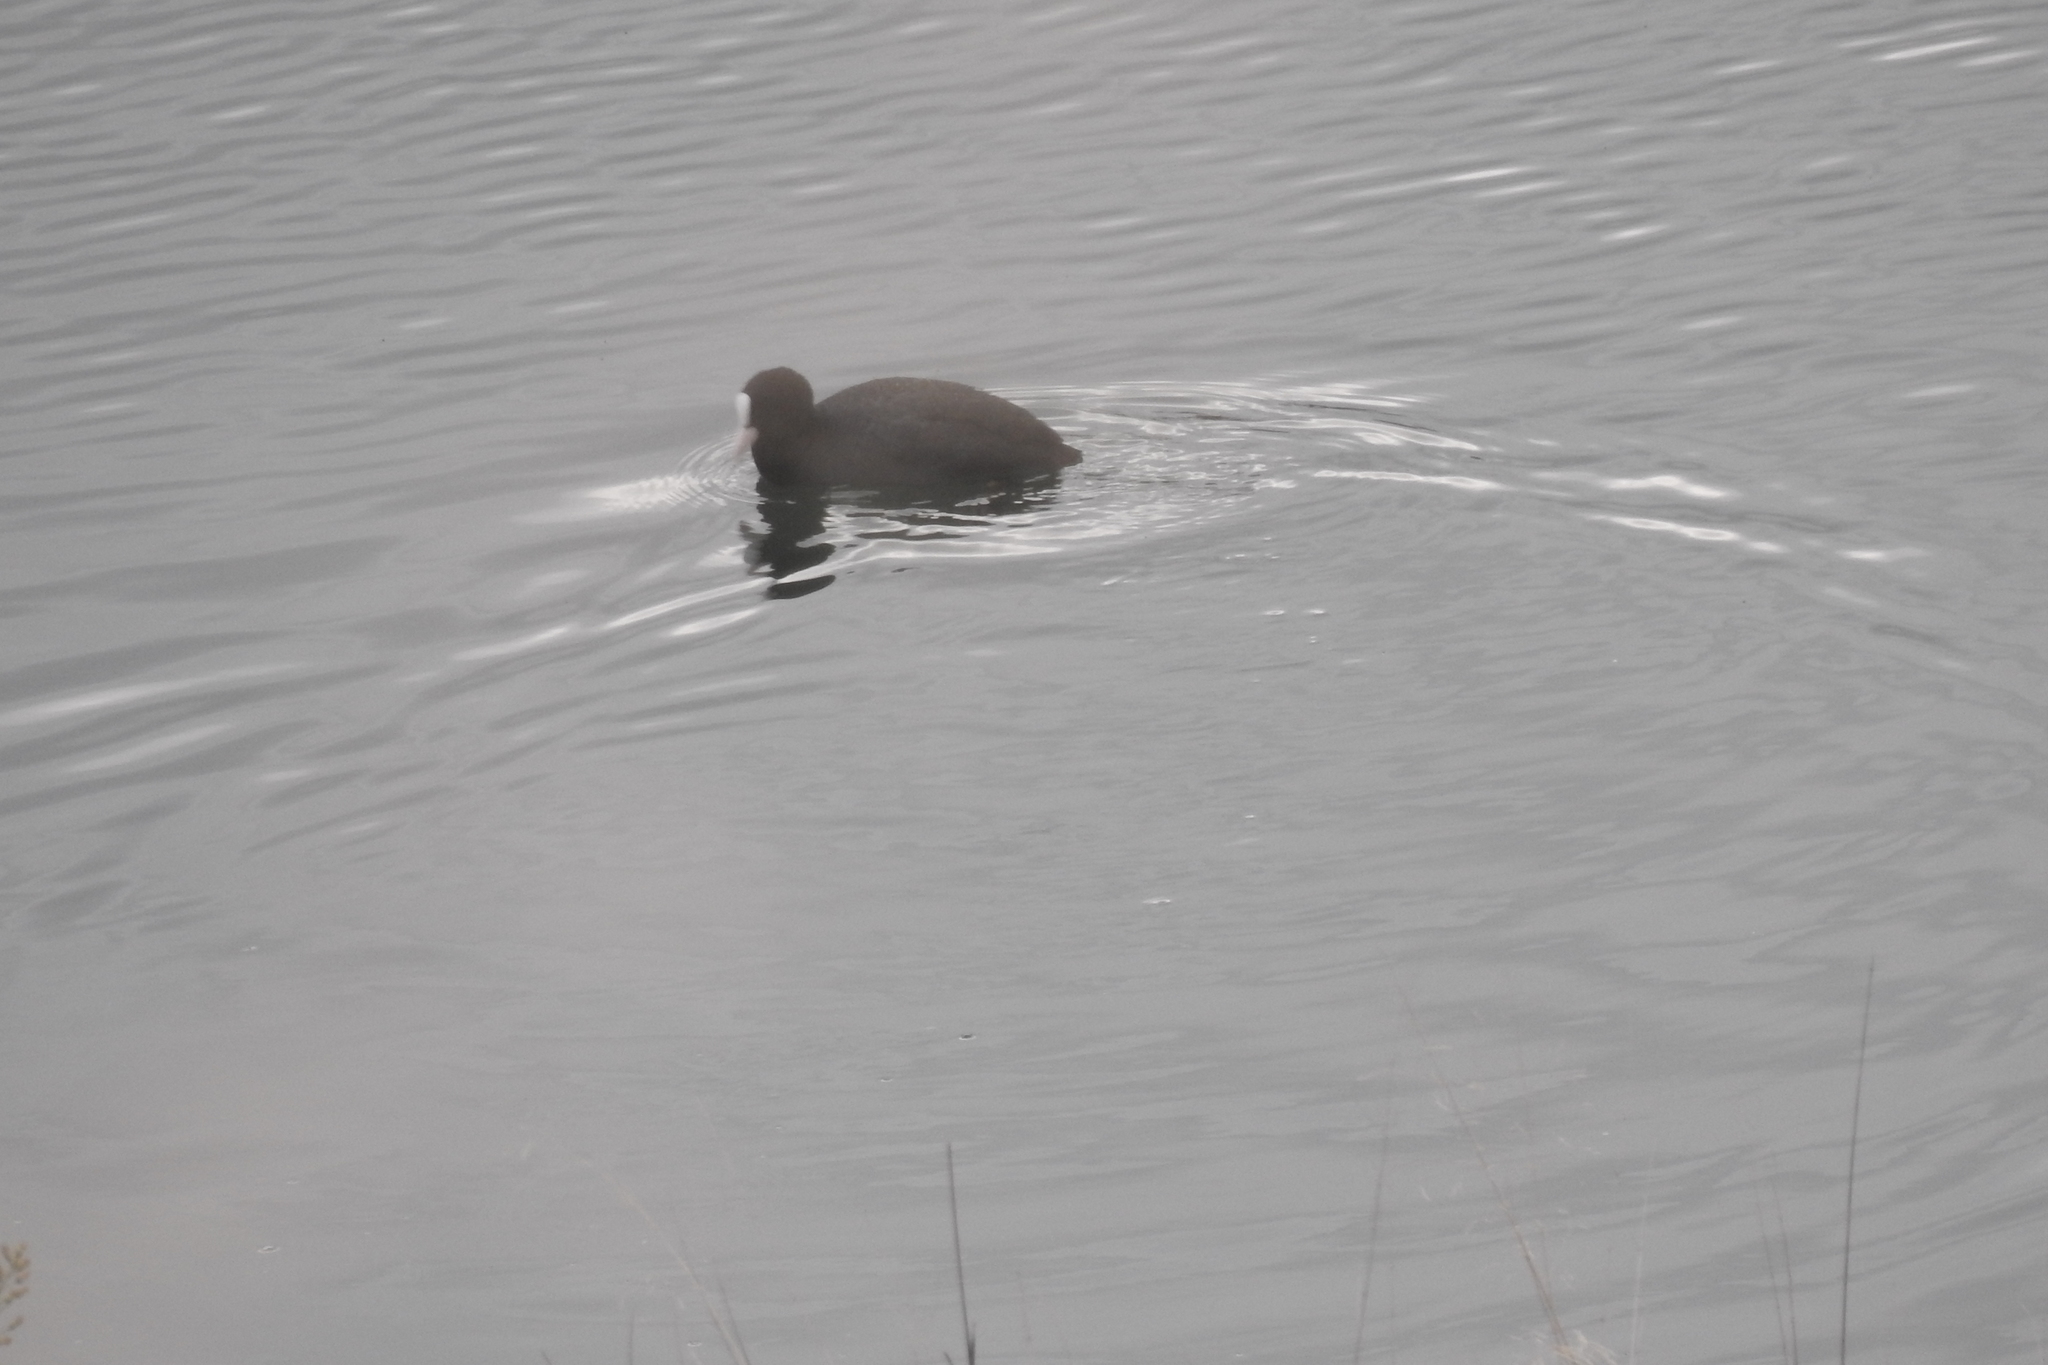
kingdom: Animalia
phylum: Chordata
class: Aves
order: Gruiformes
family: Rallidae
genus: Fulica
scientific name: Fulica atra
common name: Eurasian coot
